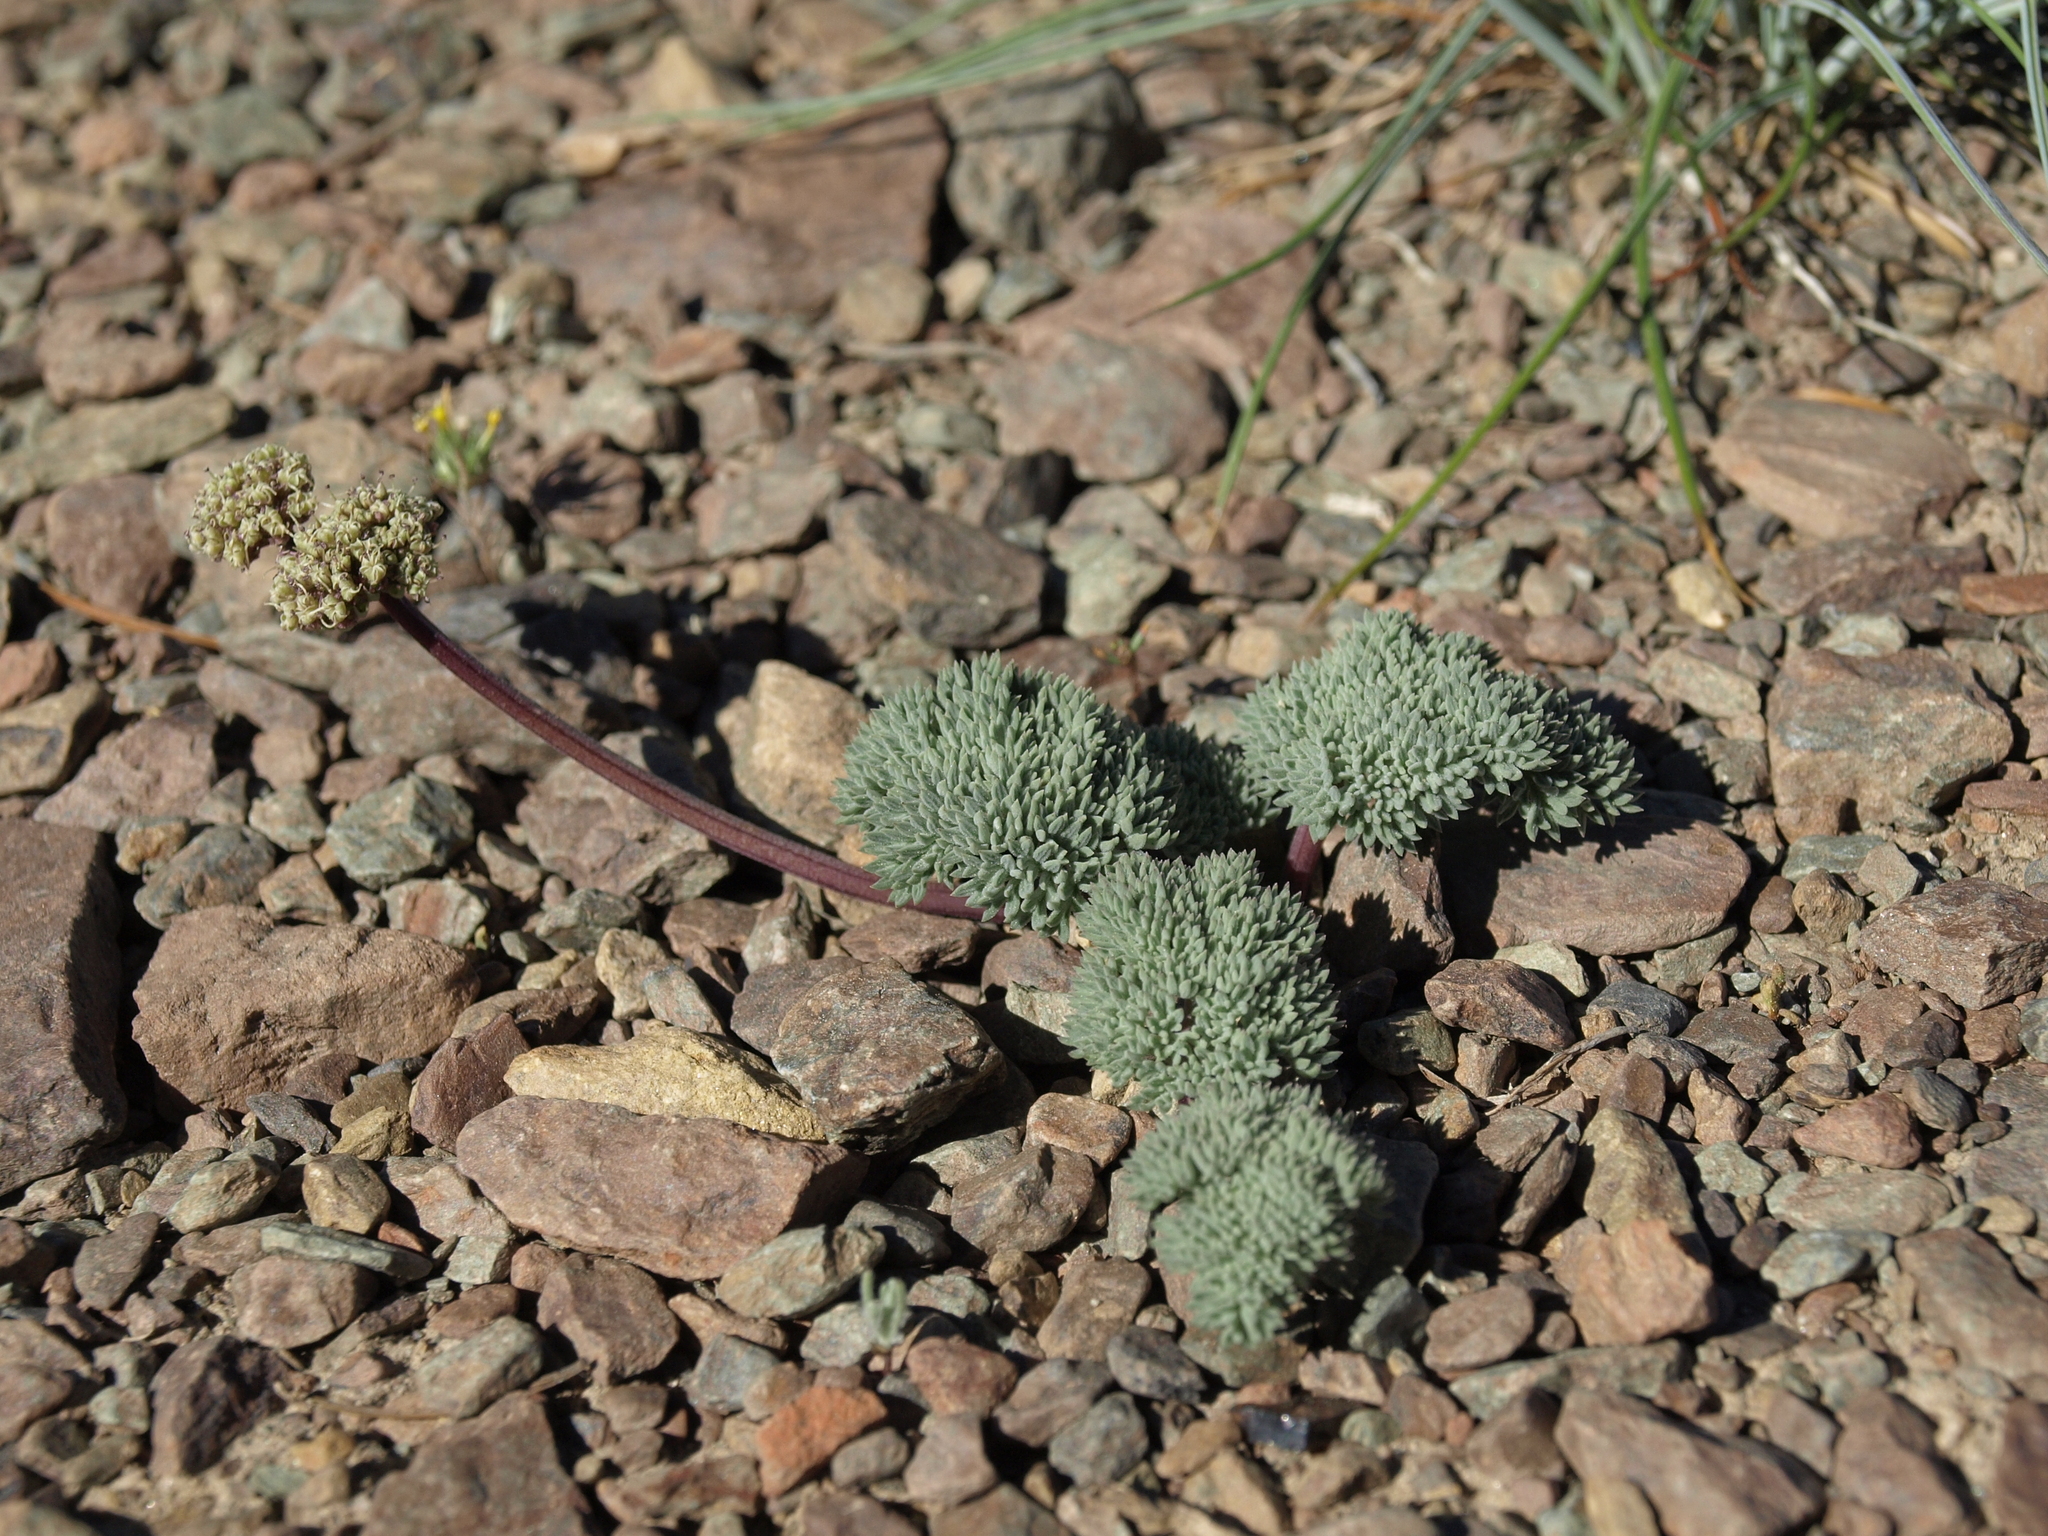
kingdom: Plantae
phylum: Tracheophyta
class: Magnoliopsida
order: Apiales
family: Apiaceae
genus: Aulospermum
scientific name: Aulospermum cinerarium
